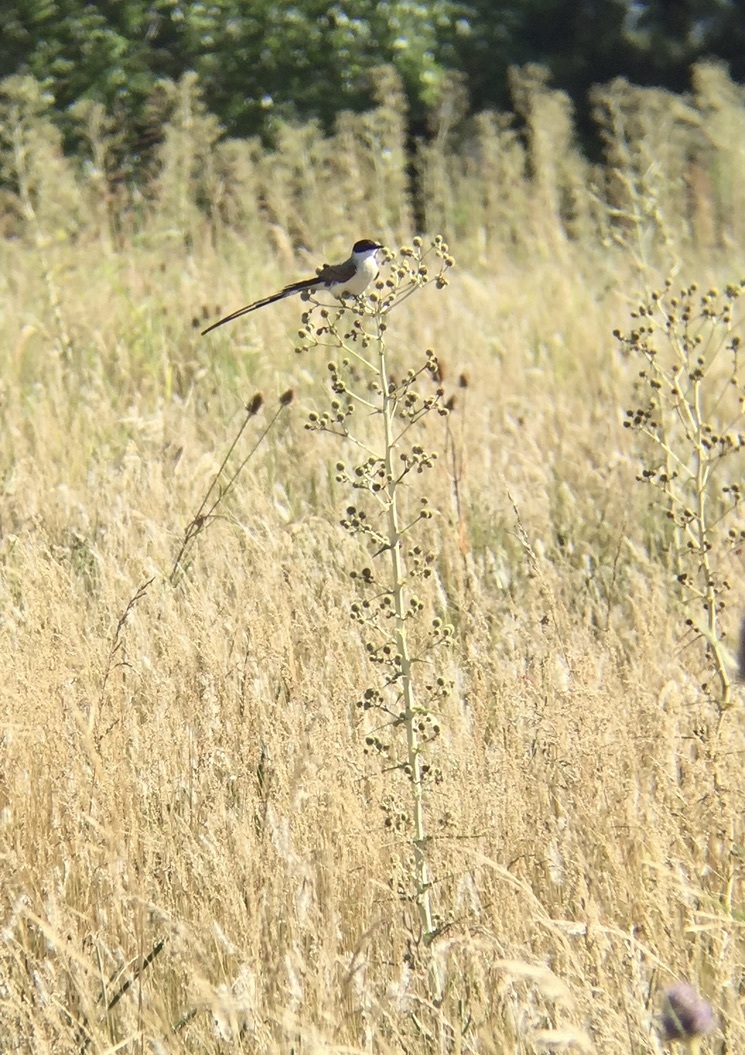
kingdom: Animalia
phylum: Chordata
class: Aves
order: Passeriformes
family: Tyrannidae
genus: Tyrannus
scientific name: Tyrannus savana
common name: Fork-tailed flycatcher
